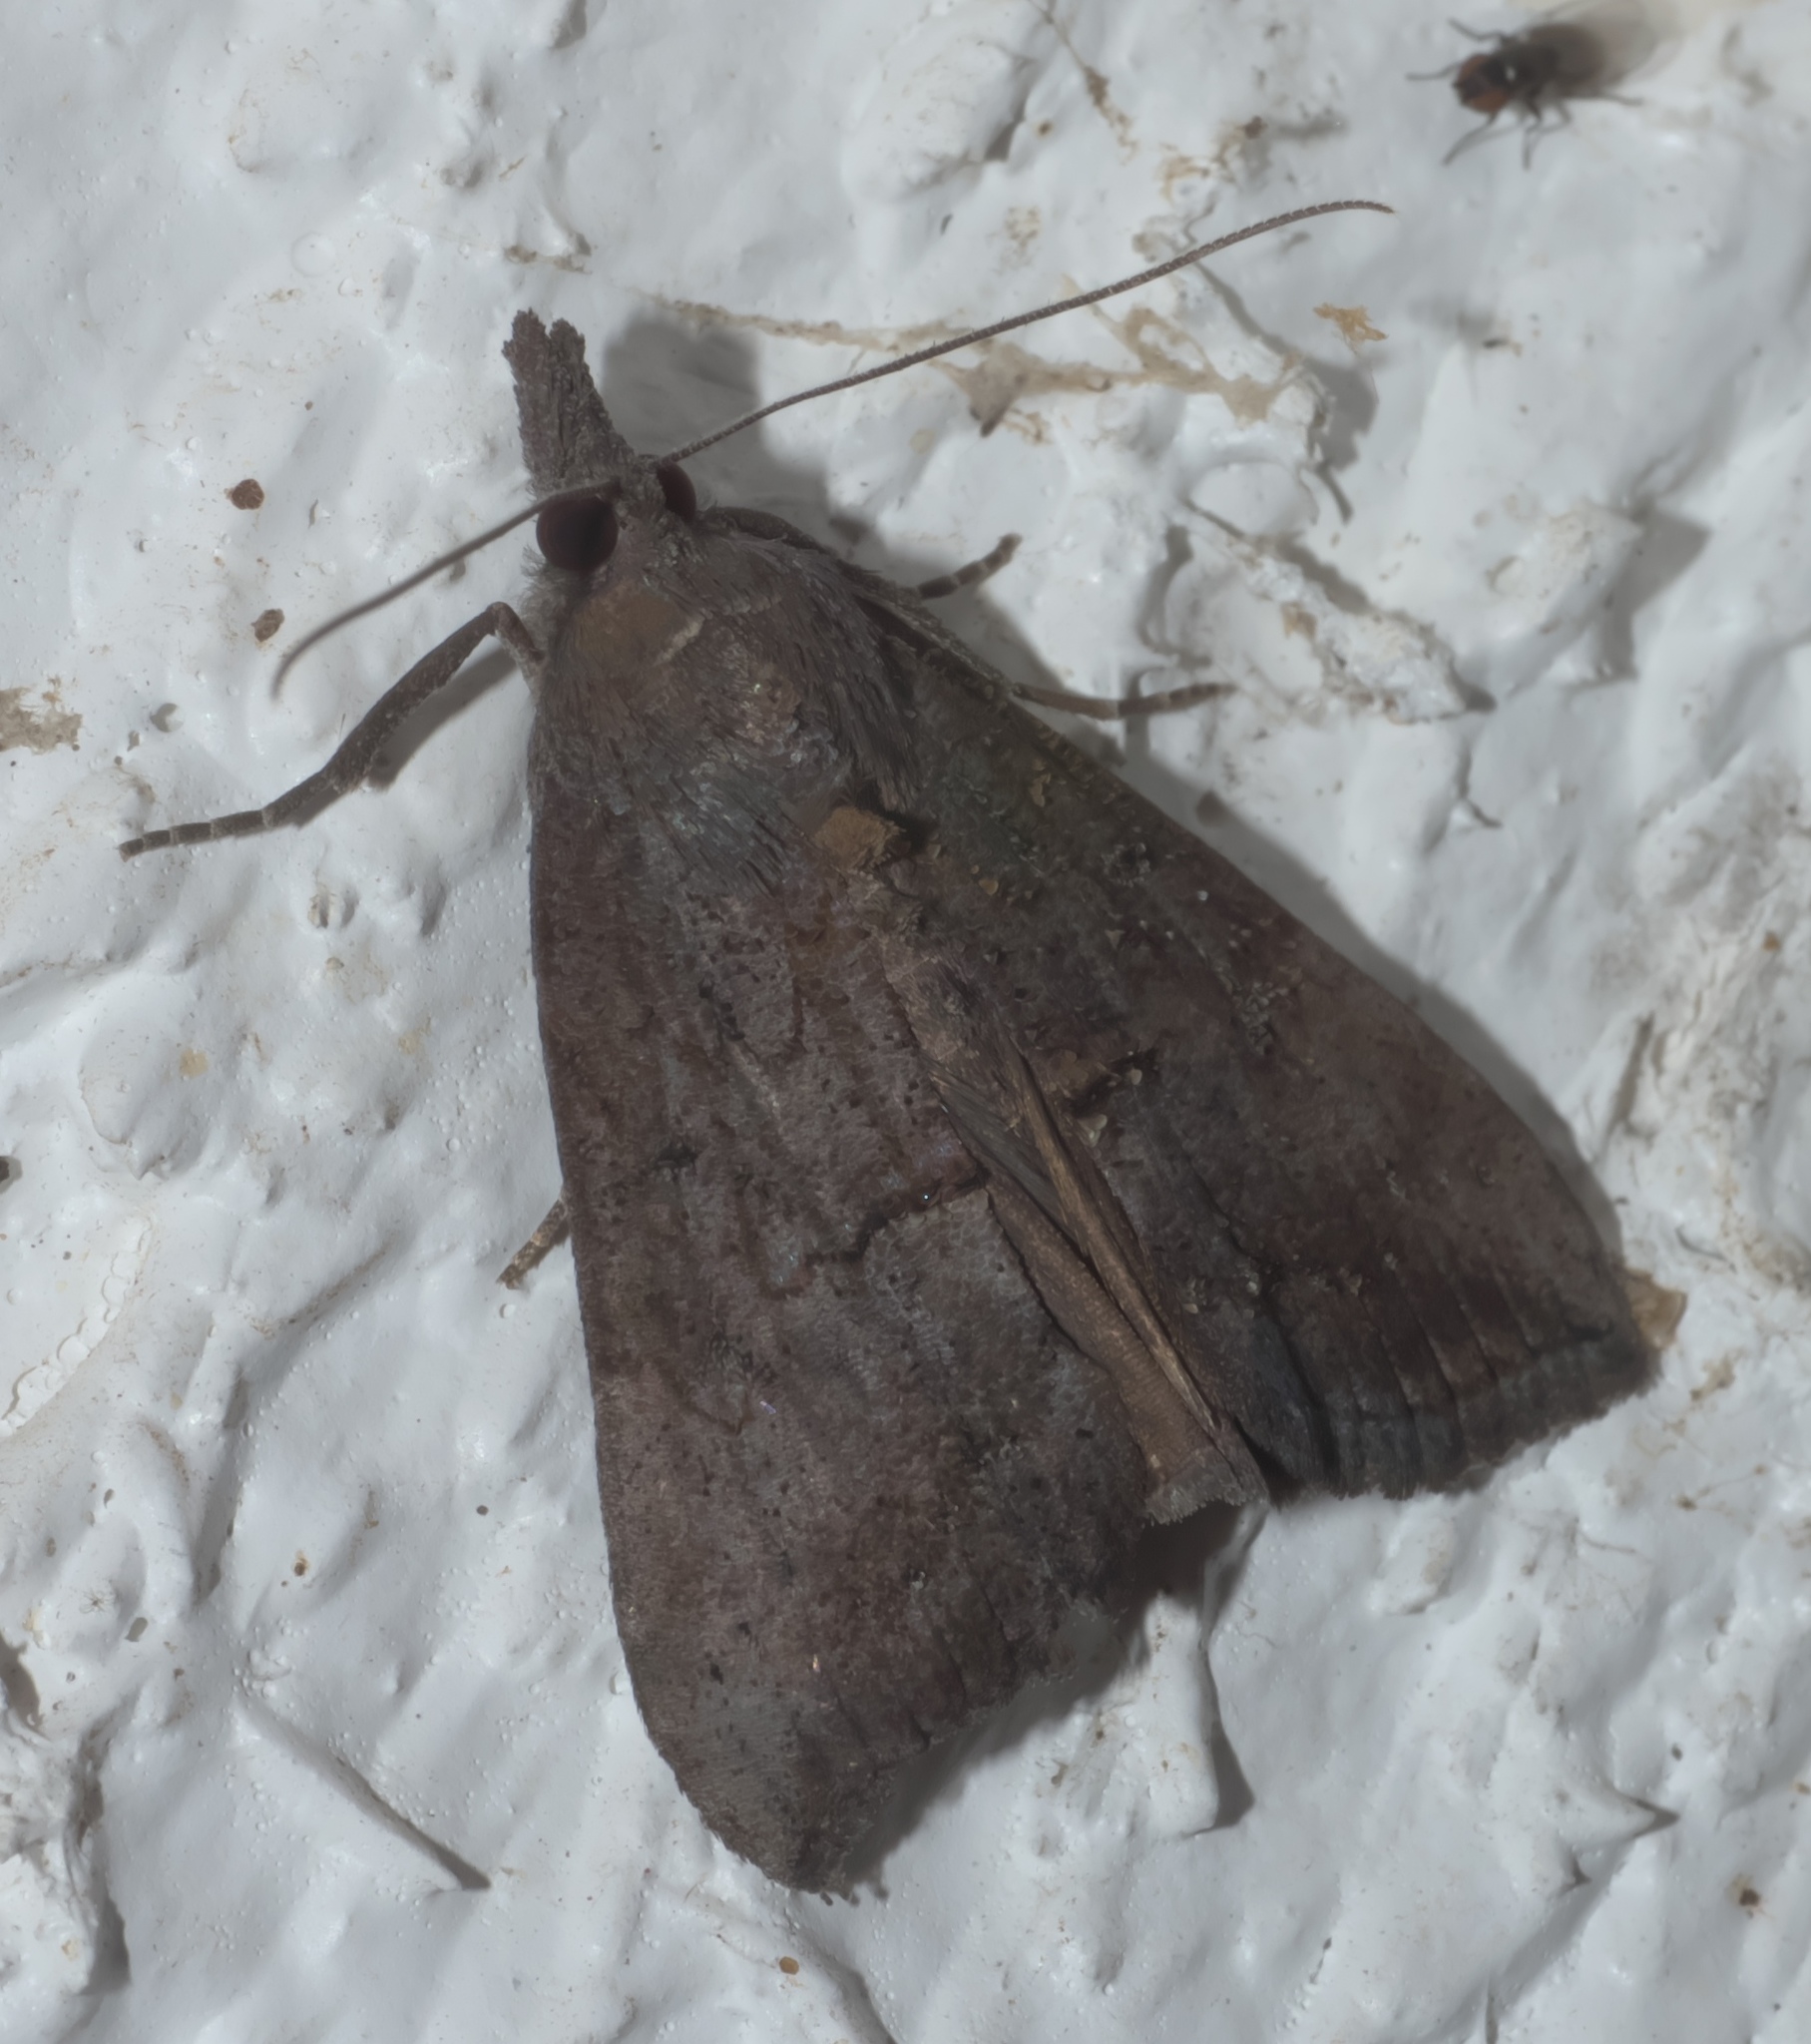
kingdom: Animalia
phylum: Arthropoda
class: Insecta
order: Lepidoptera
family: Erebidae
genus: Hypena
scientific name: Hypena scabra
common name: Green cloverworm
